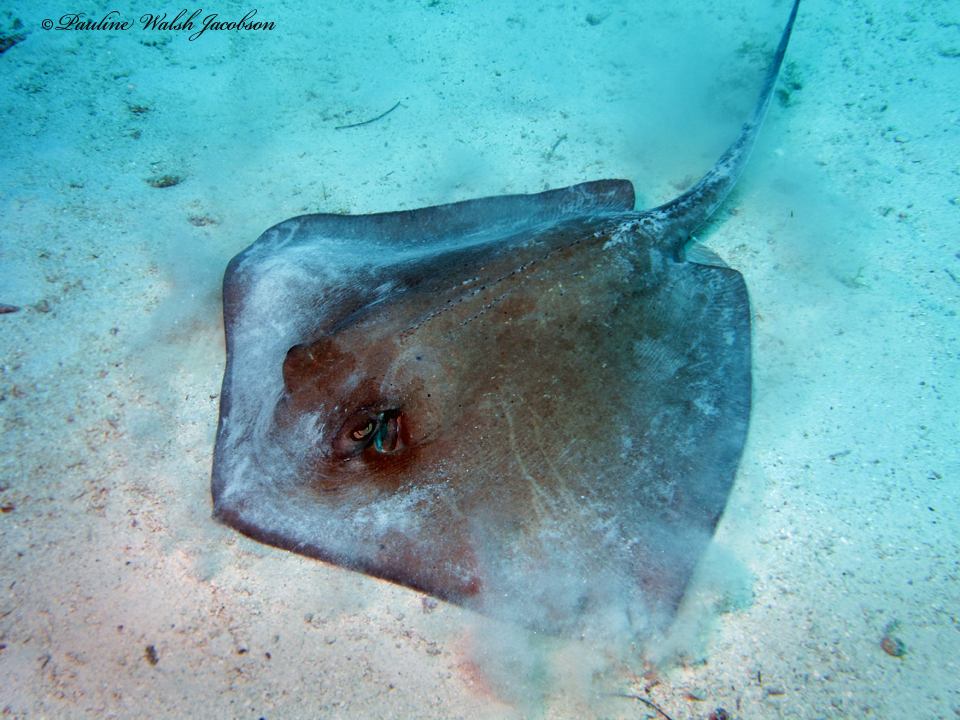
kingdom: Animalia
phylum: Chordata
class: Elasmobranchii
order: Myliobatiformes
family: Dasyatidae
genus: Hypanus
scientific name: Hypanus americanus
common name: Southern stingray
